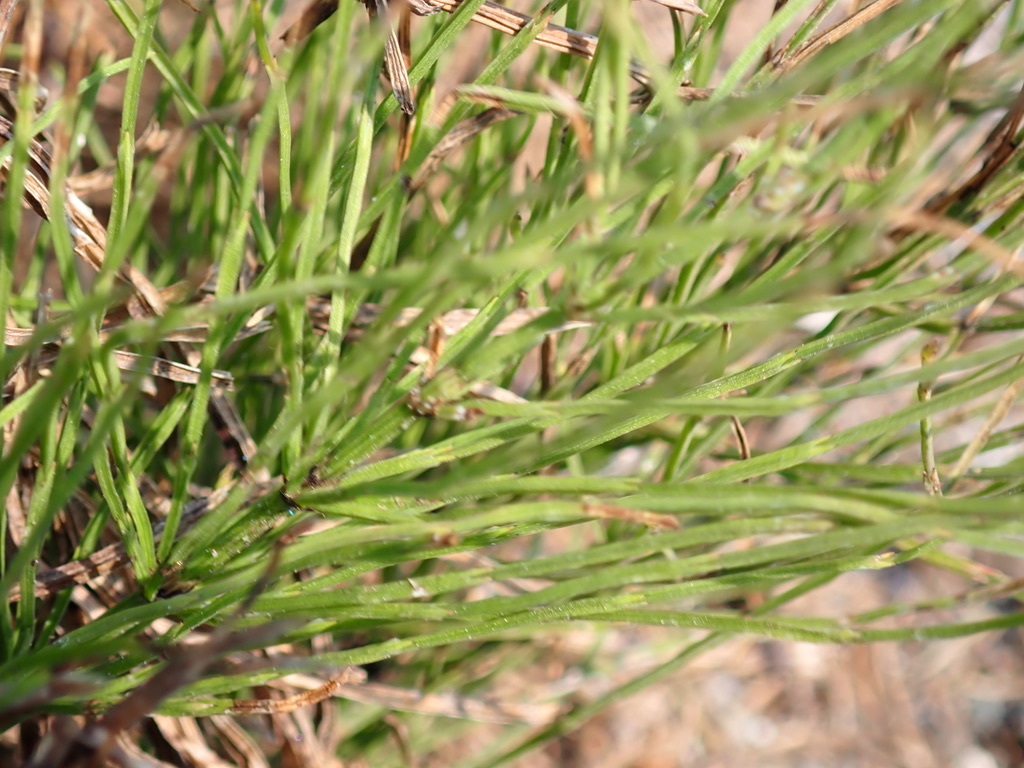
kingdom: Plantae
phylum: Tracheophyta
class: Polypodiopsida
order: Equisetales
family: Equisetaceae
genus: Equisetum
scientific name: Equisetum arvense
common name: Field horsetail
